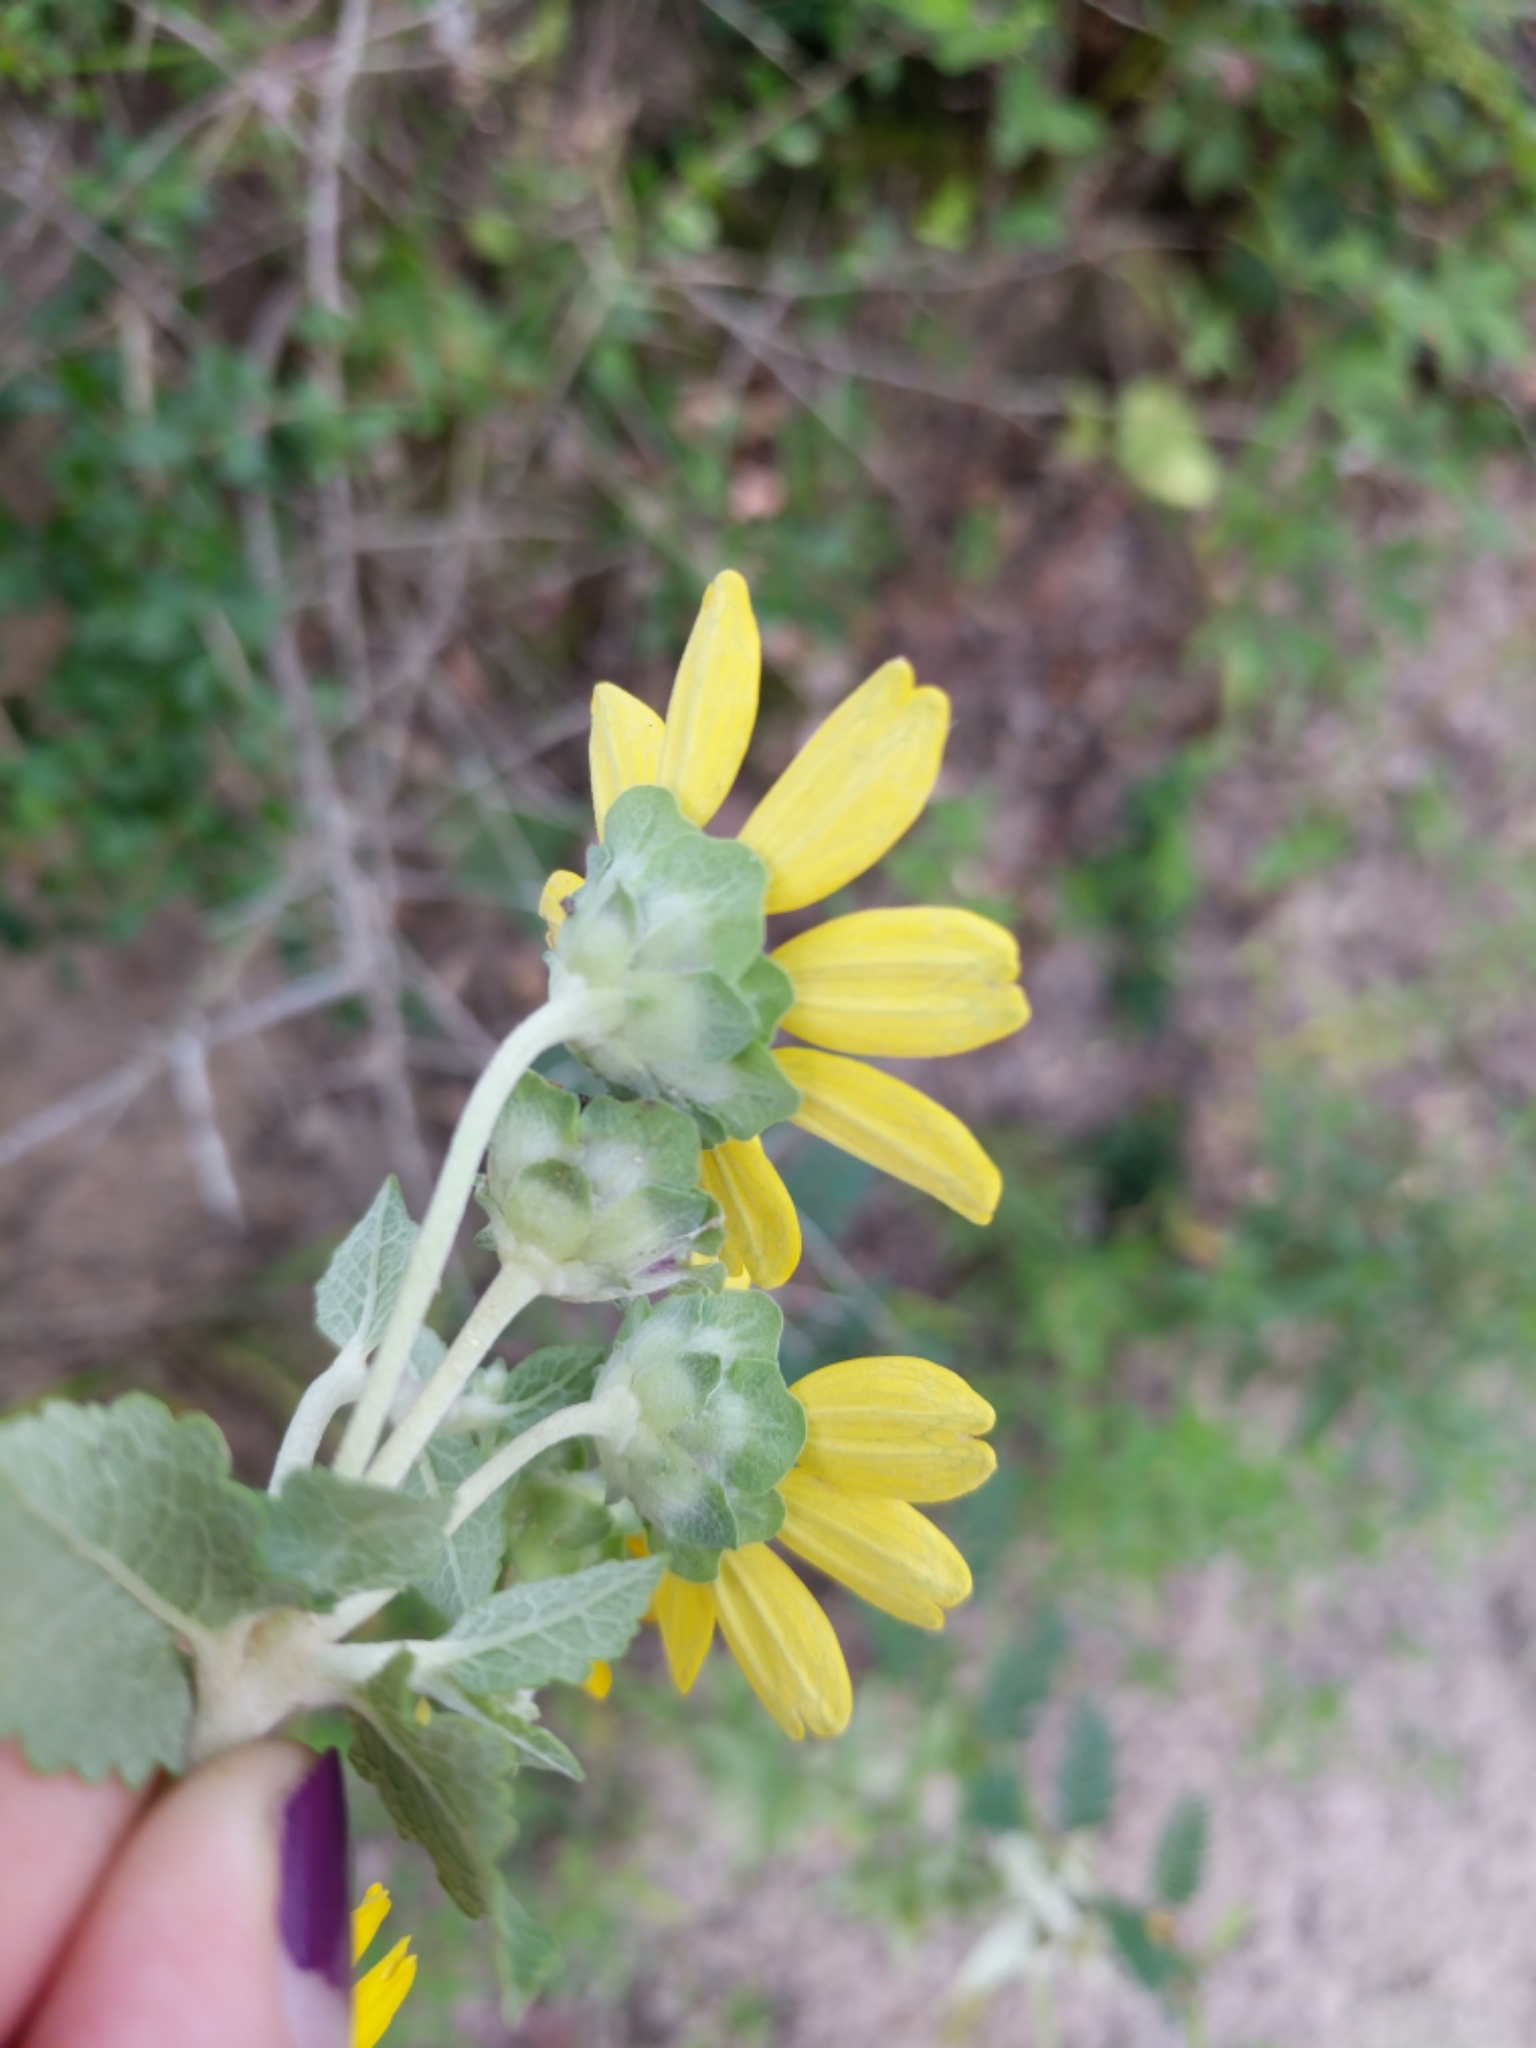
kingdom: Plantae
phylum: Tracheophyta
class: Magnoliopsida
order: Asterales
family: Asteraceae
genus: Berlandiera
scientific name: Berlandiera pumila
